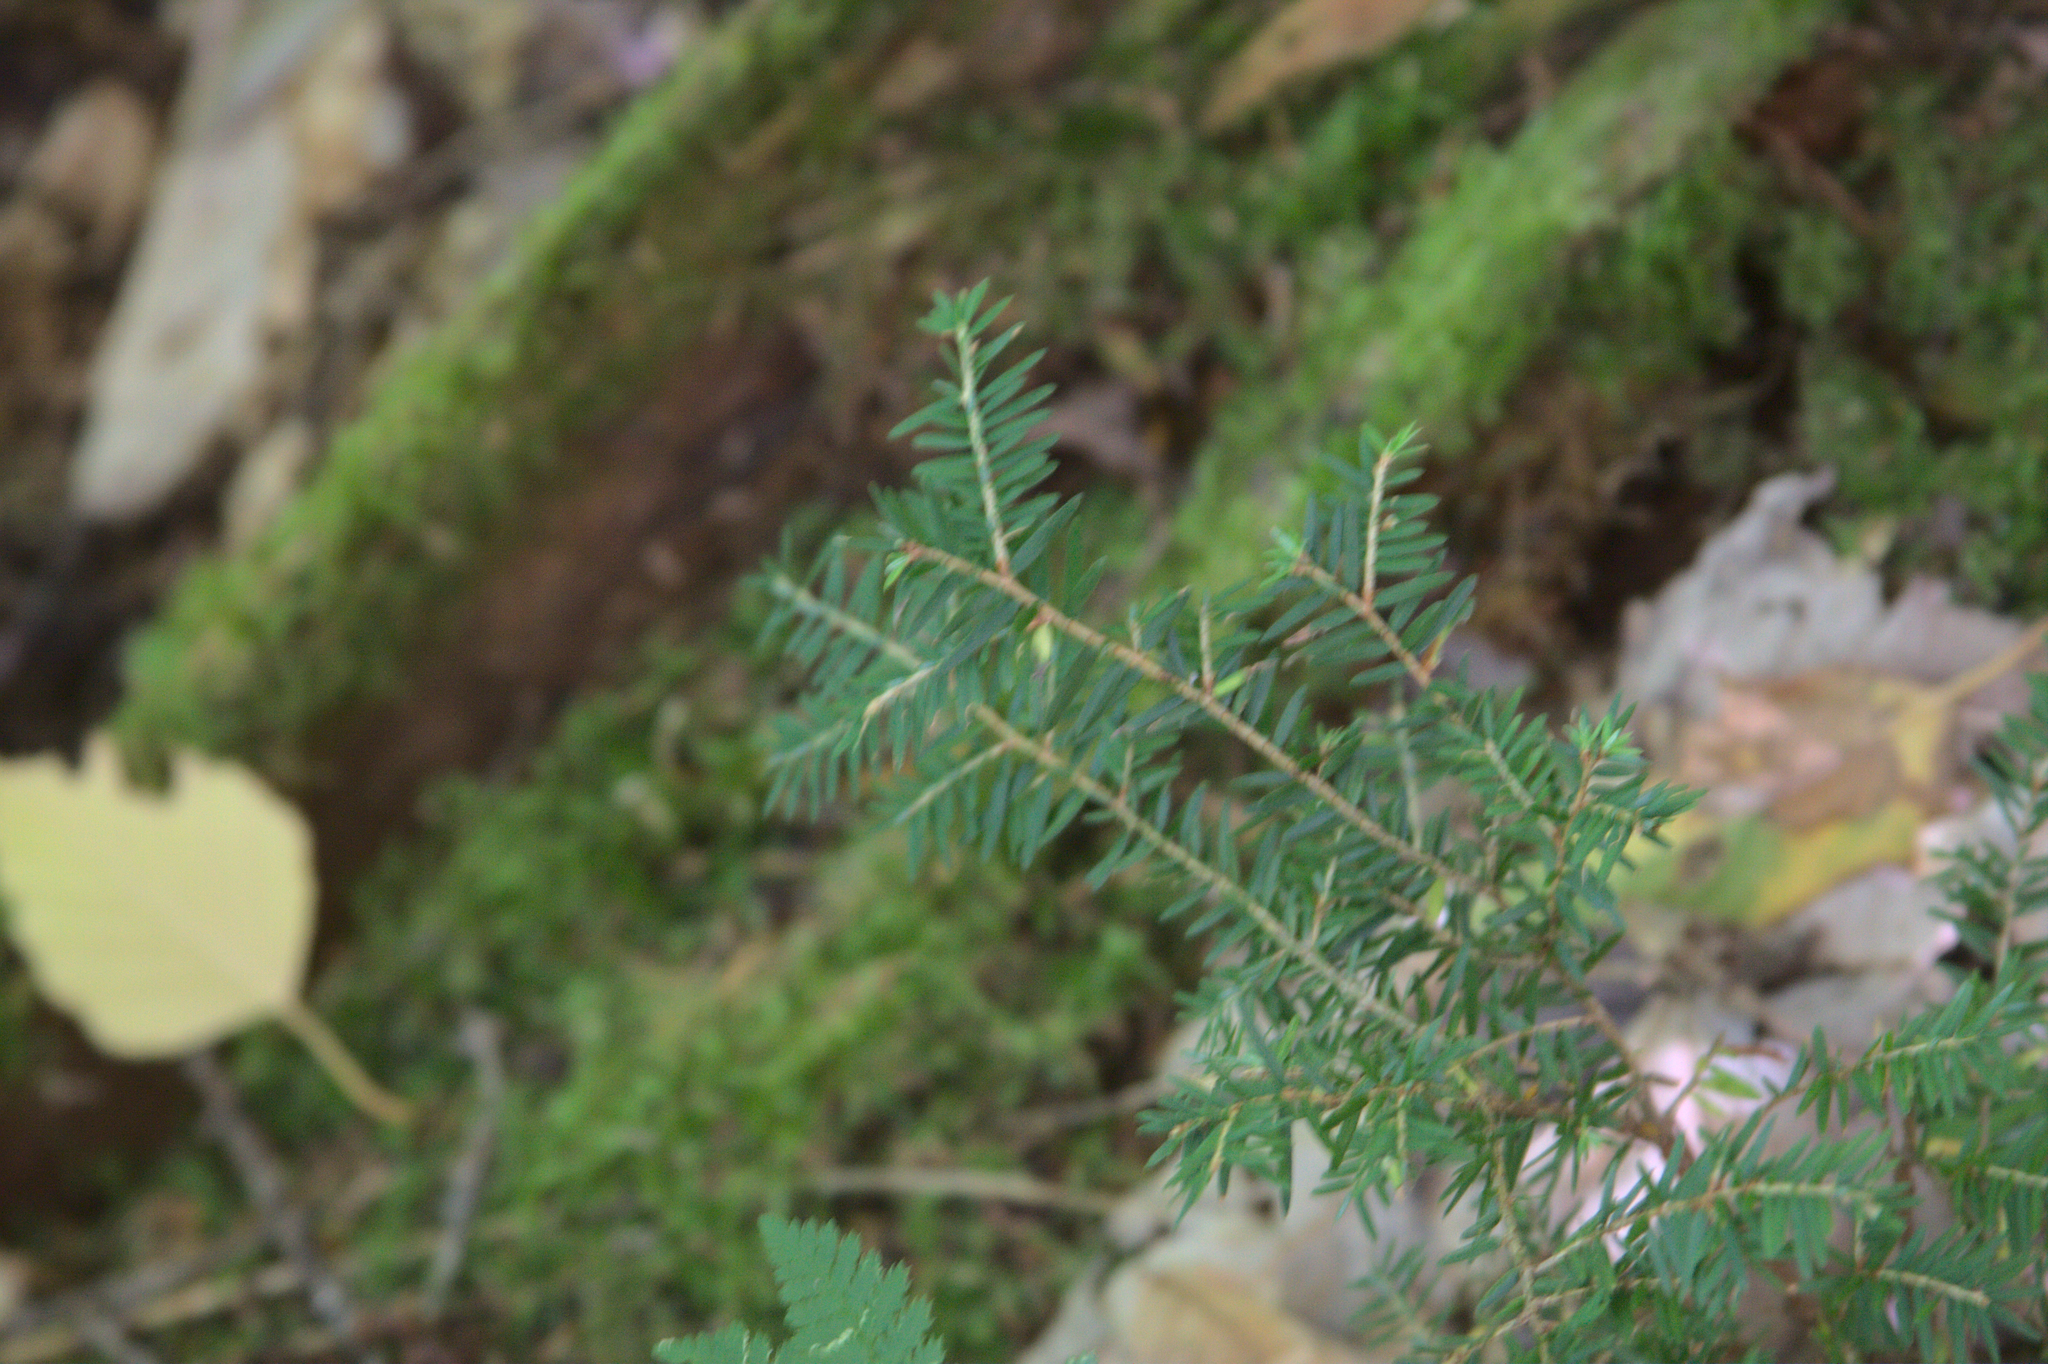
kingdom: Plantae
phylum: Tracheophyta
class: Pinopsida
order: Pinales
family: Pinaceae
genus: Tsuga
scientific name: Tsuga canadensis
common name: Eastern hemlock
